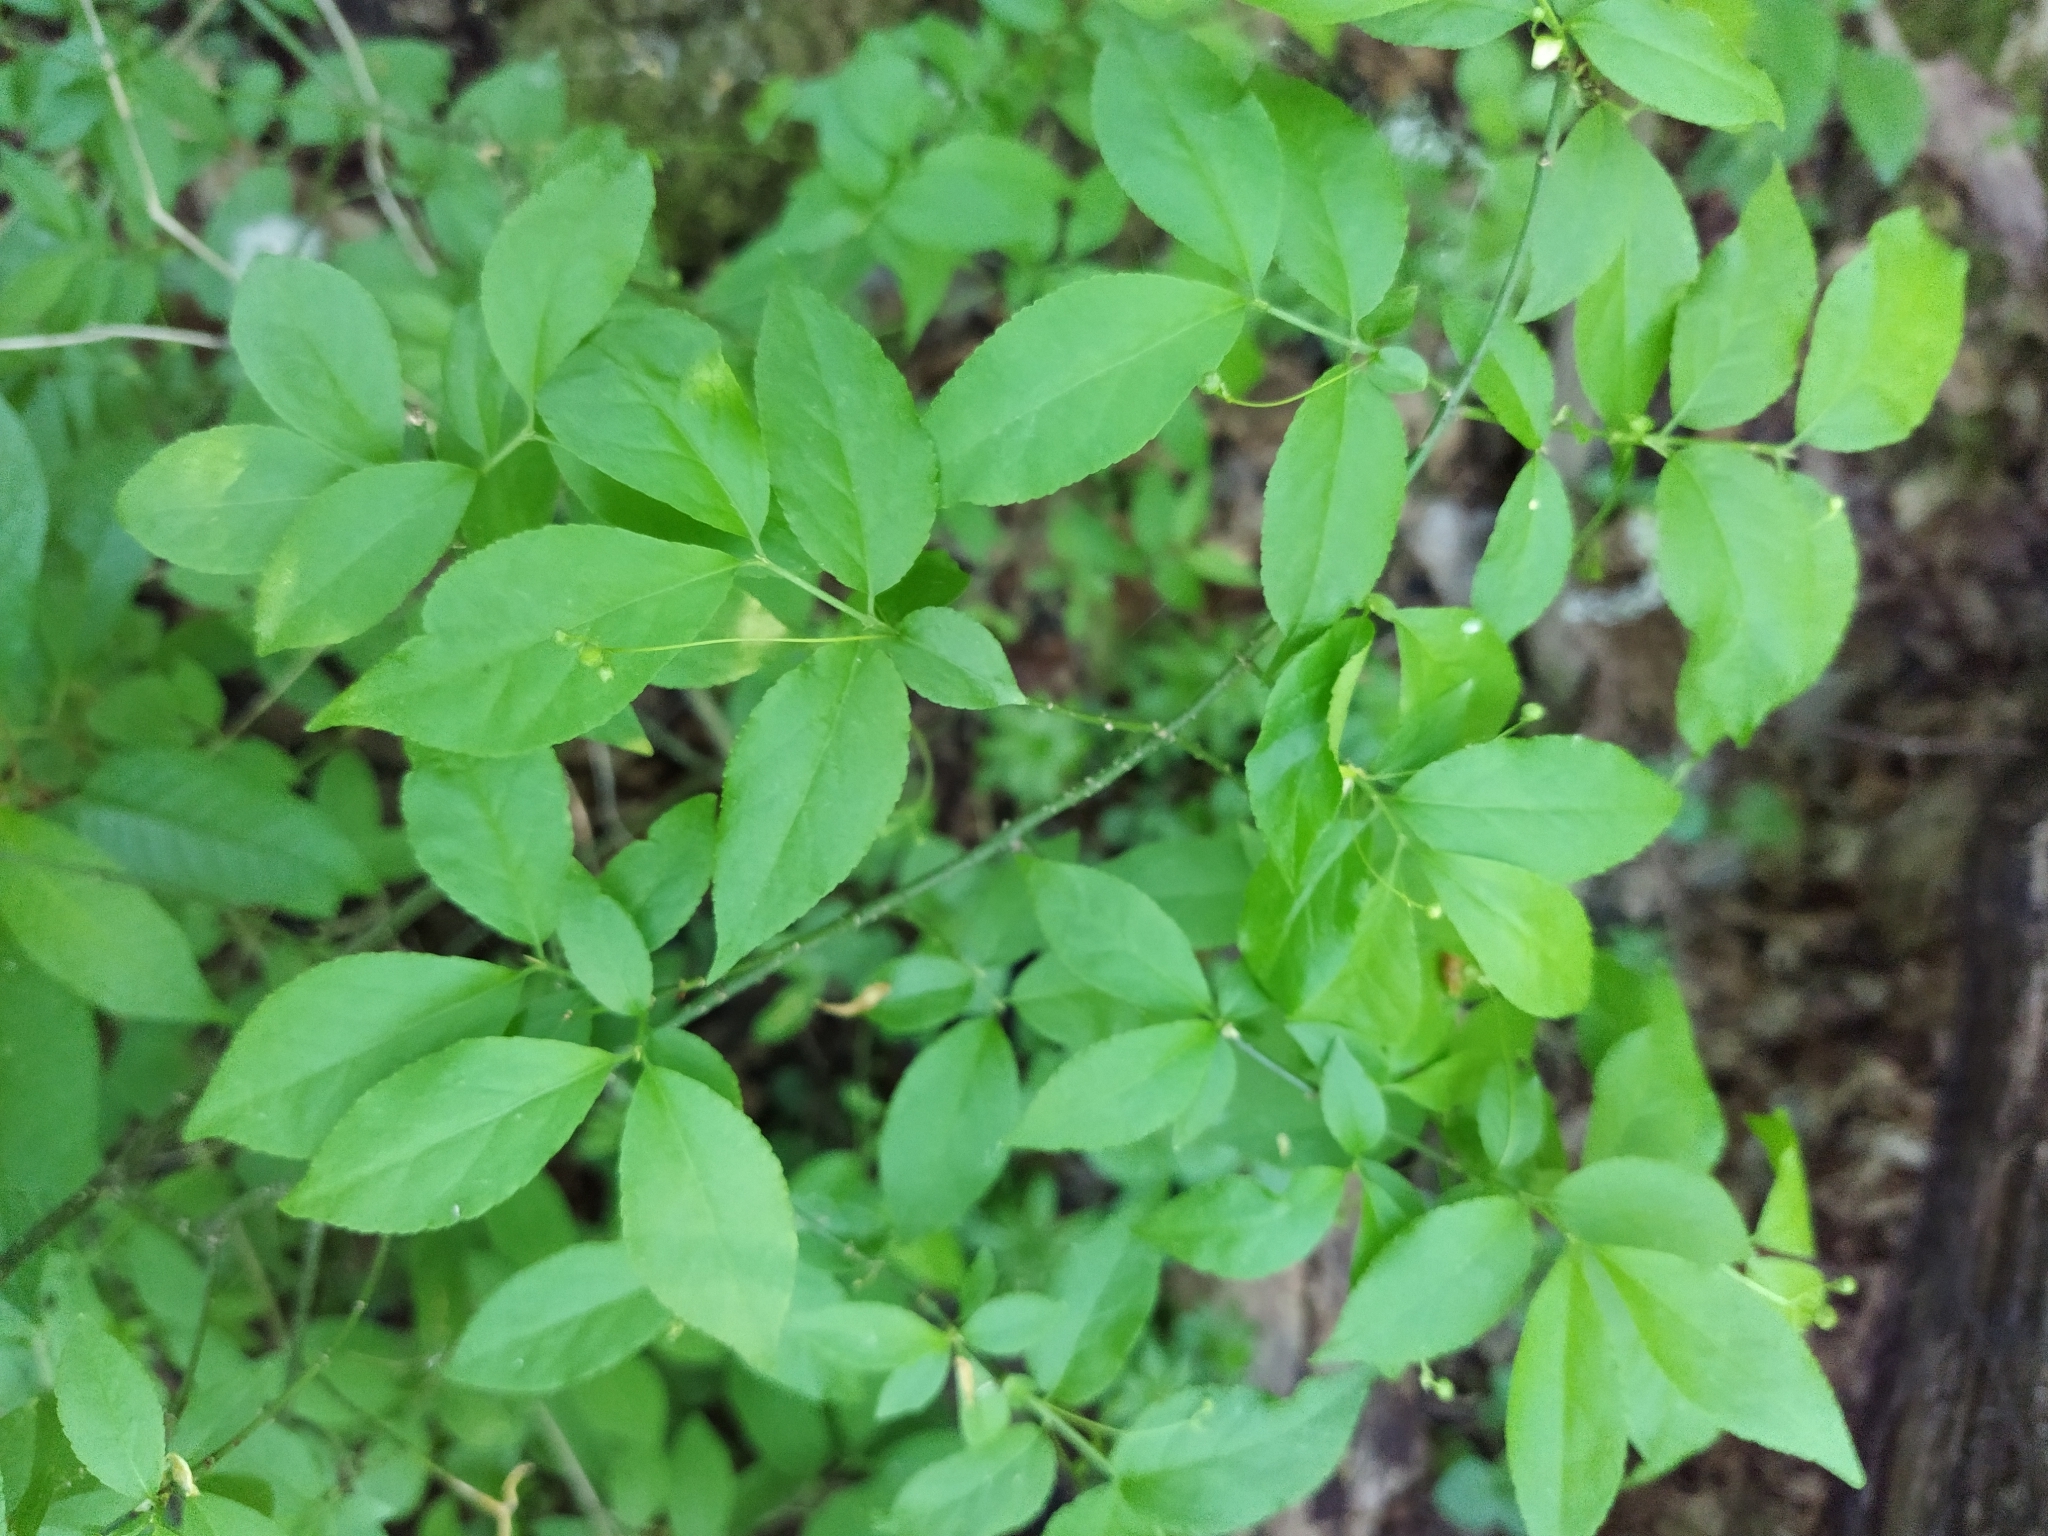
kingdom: Plantae
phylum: Tracheophyta
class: Magnoliopsida
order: Celastrales
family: Celastraceae
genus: Euonymus
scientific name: Euonymus verrucosus
